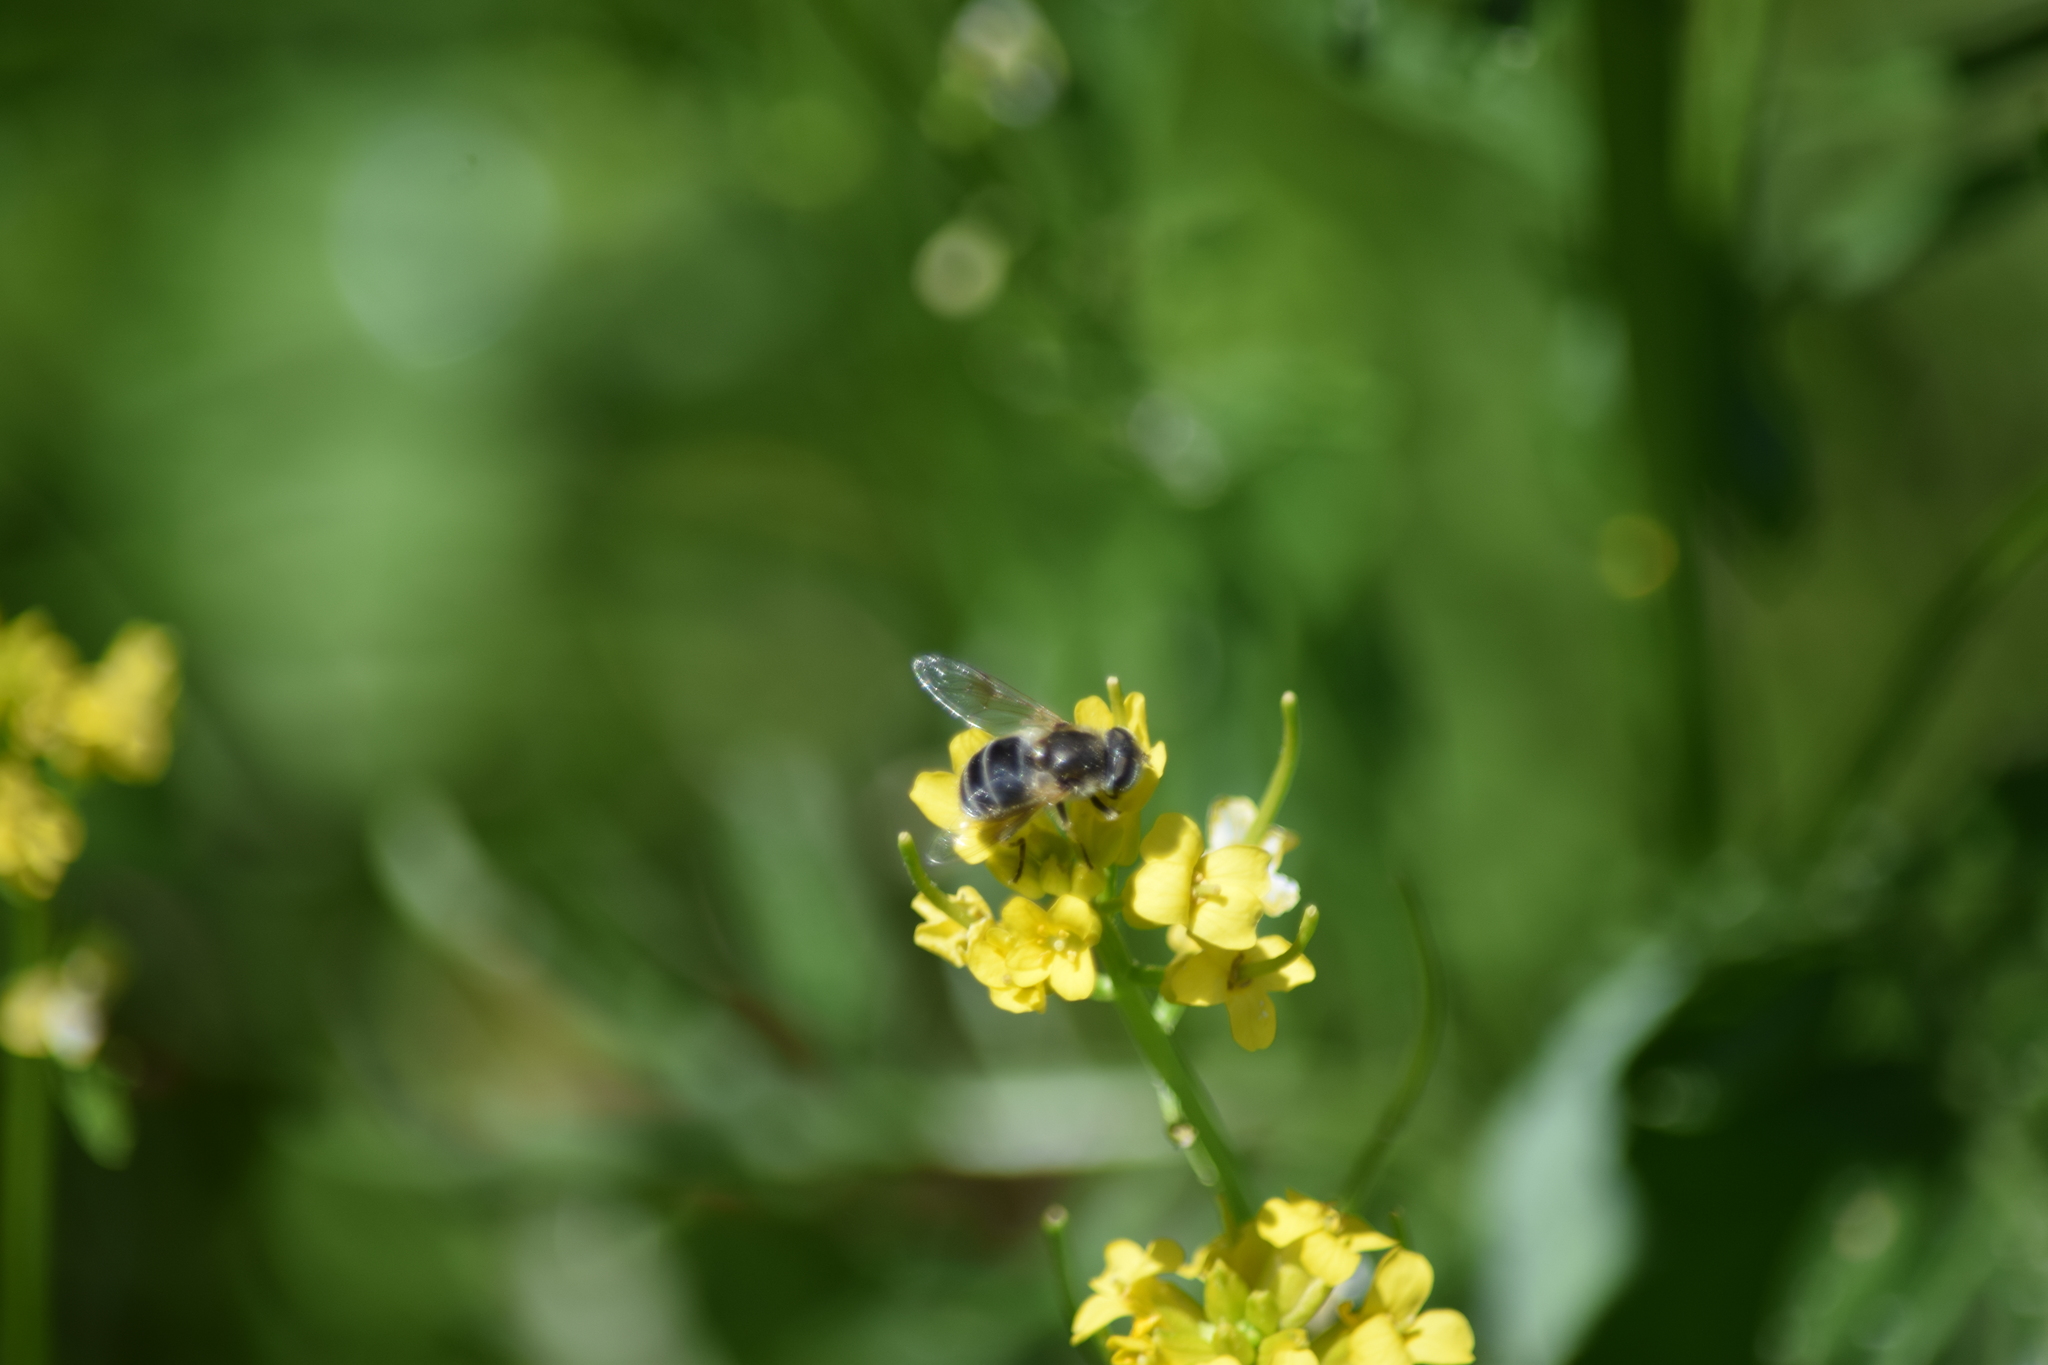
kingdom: Animalia
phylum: Arthropoda
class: Insecta
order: Diptera
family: Syrphidae
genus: Eristalis
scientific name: Eristalis arbustorum
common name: Hover fly
